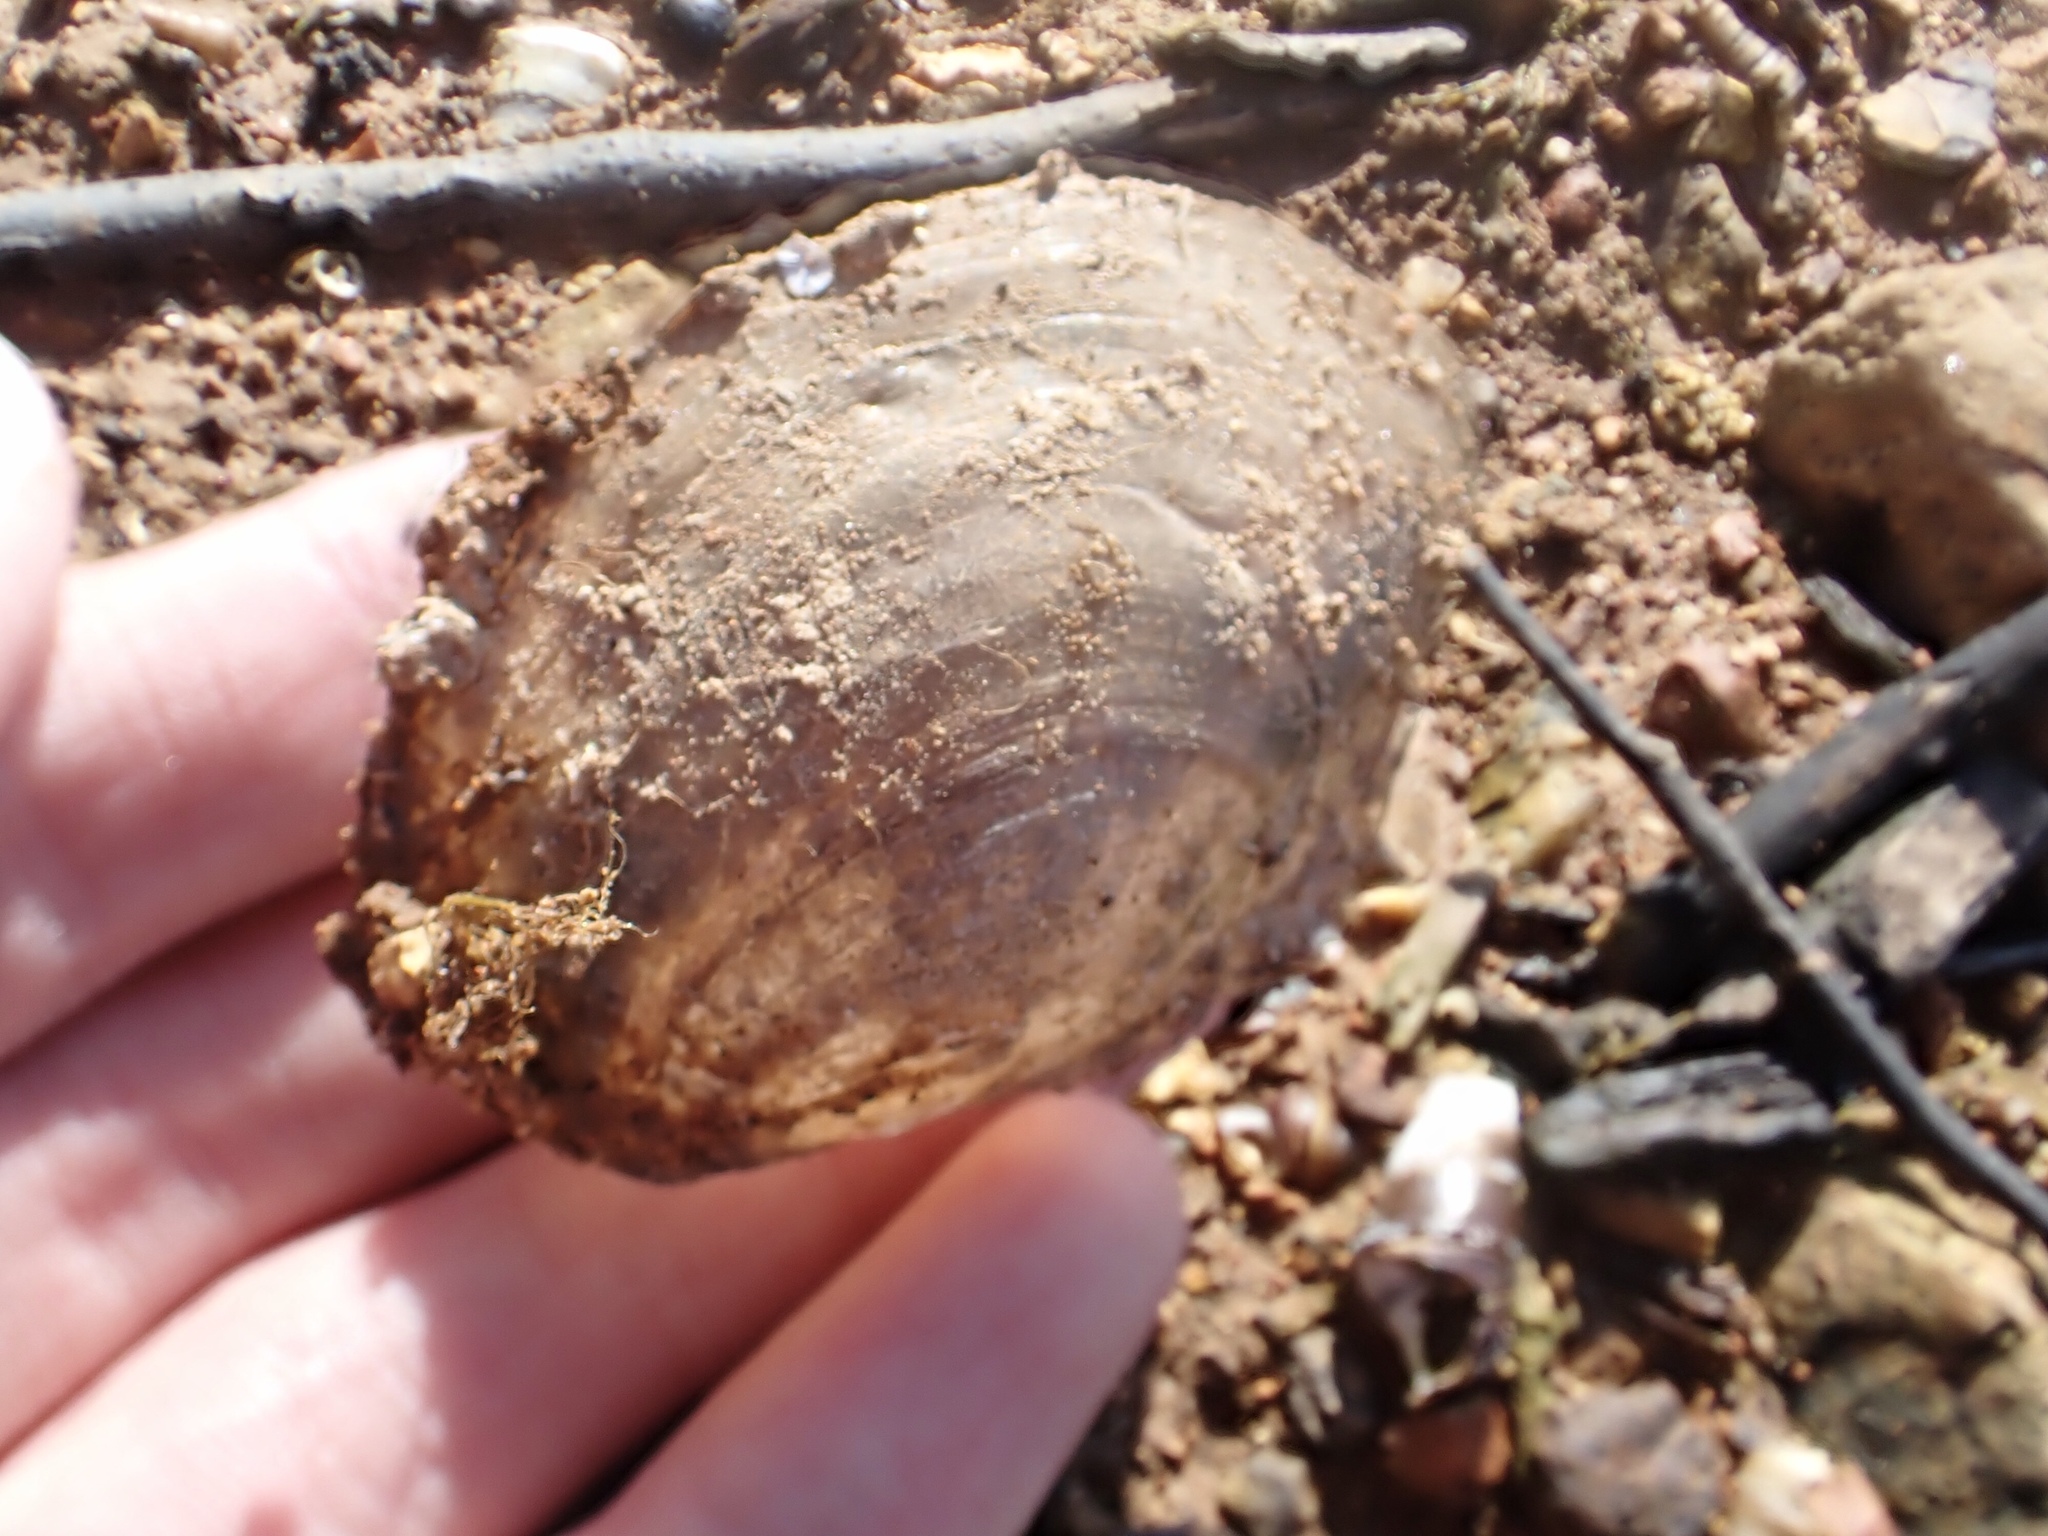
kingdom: Animalia
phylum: Mollusca
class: Bivalvia
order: Unionida
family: Unionidae
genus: Utterbackiana
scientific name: Utterbackiana suborbiculata
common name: Flat floater
